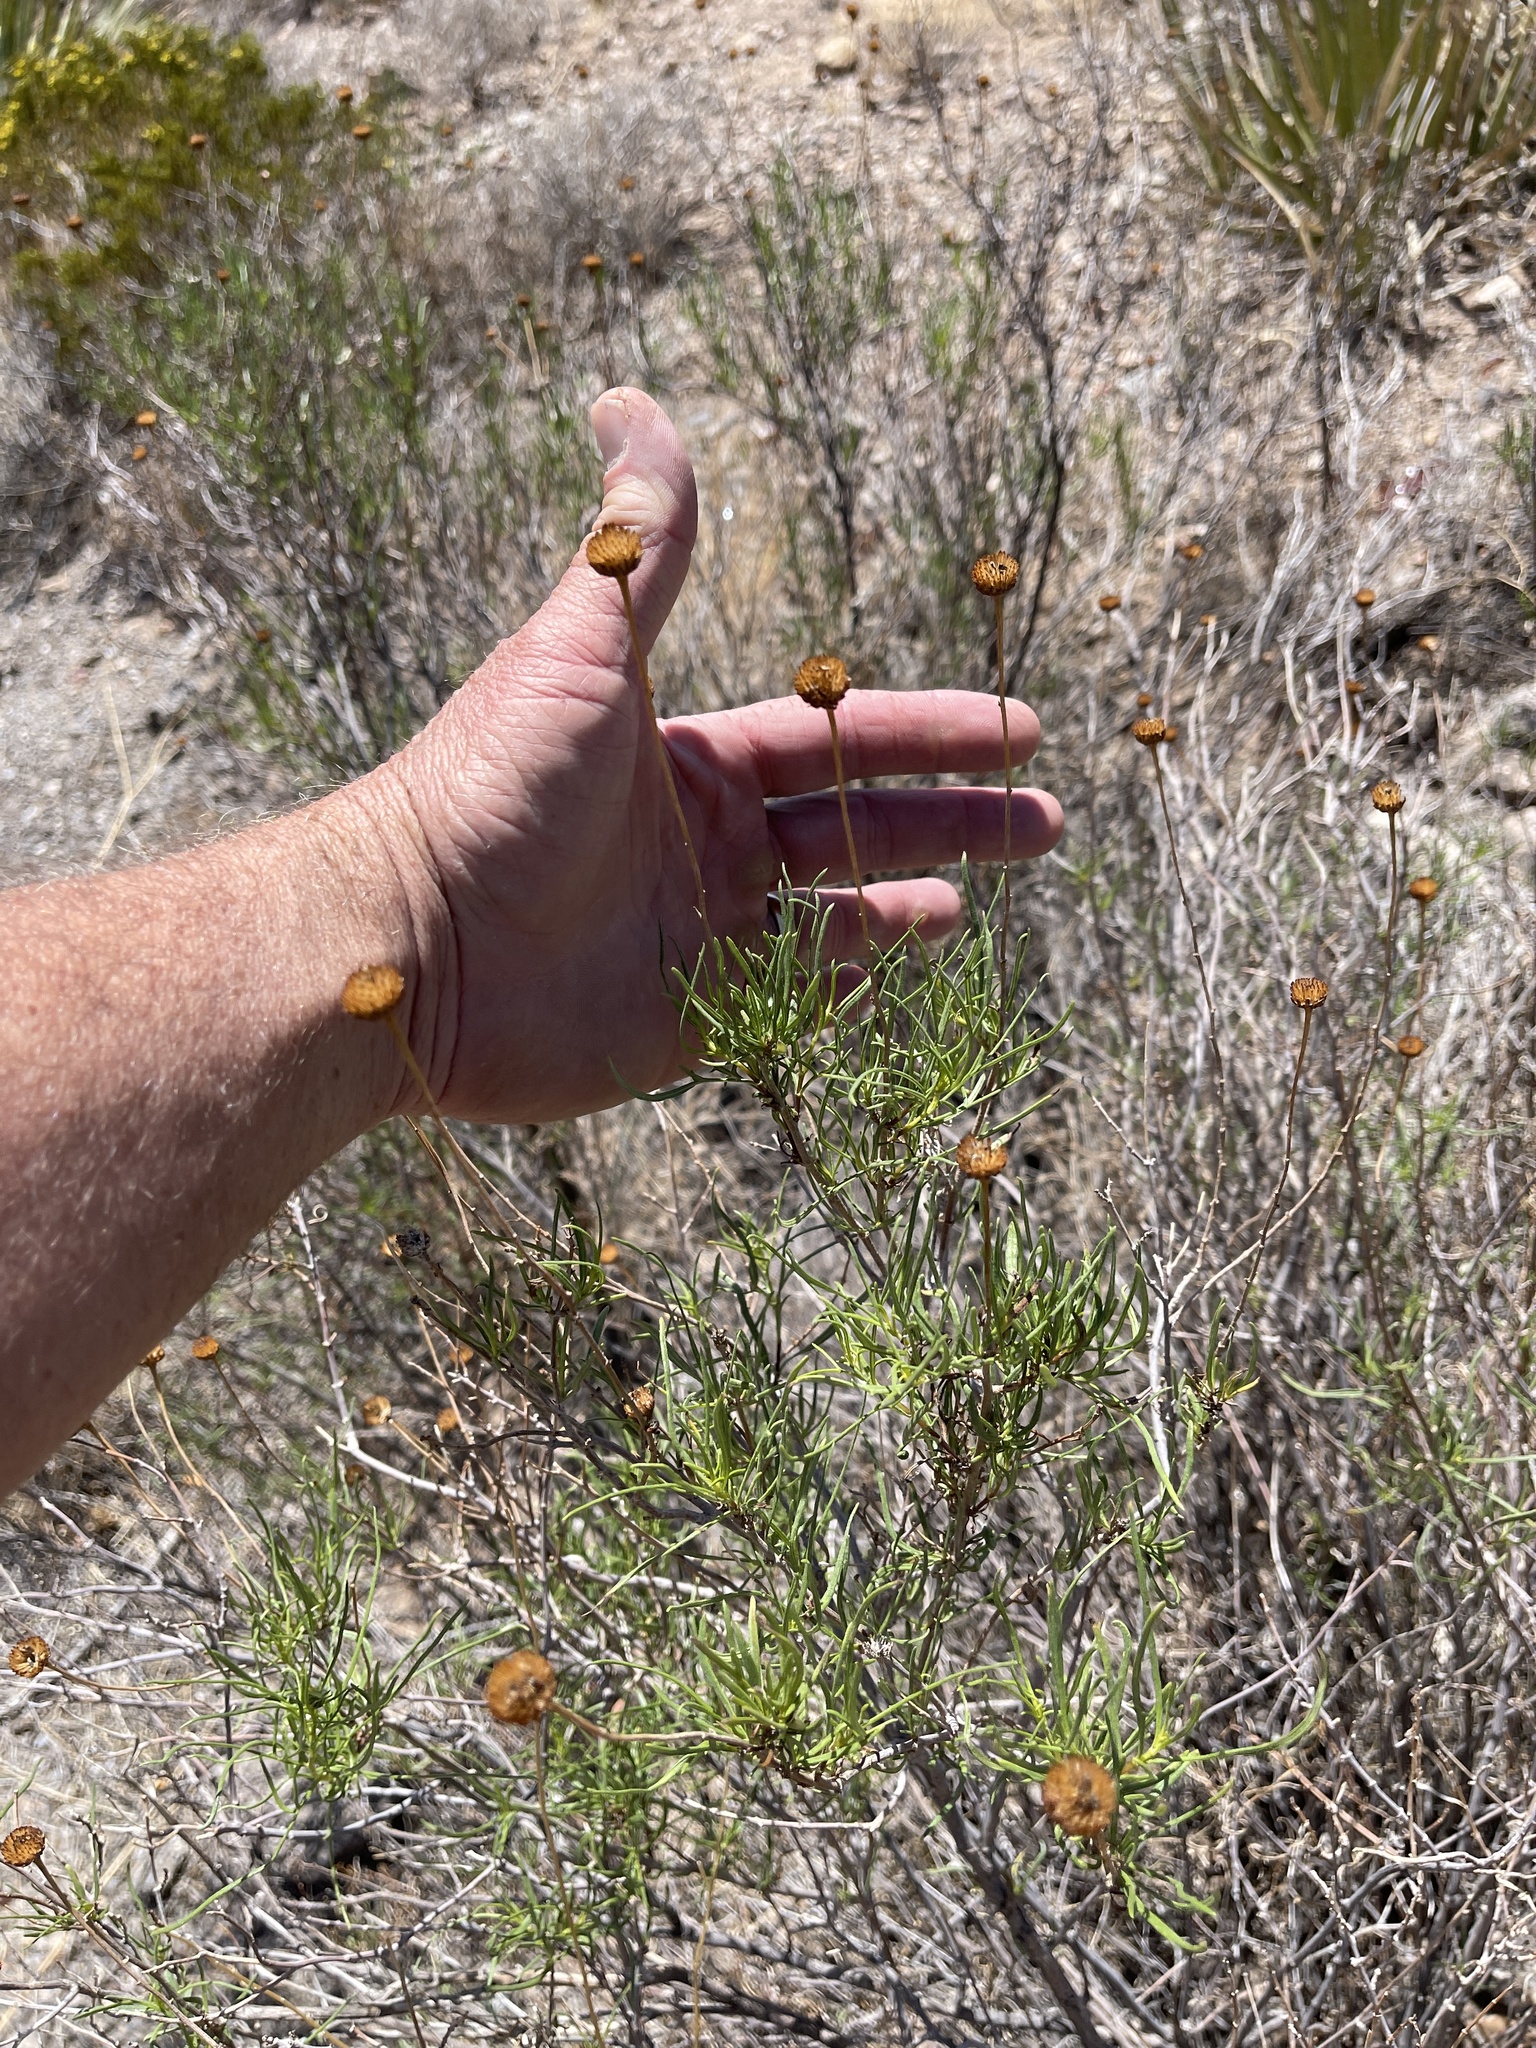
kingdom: Plantae
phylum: Tracheophyta
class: Magnoliopsida
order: Asterales
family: Asteraceae
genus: Sidneya
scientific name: Sidneya tenuifolia
